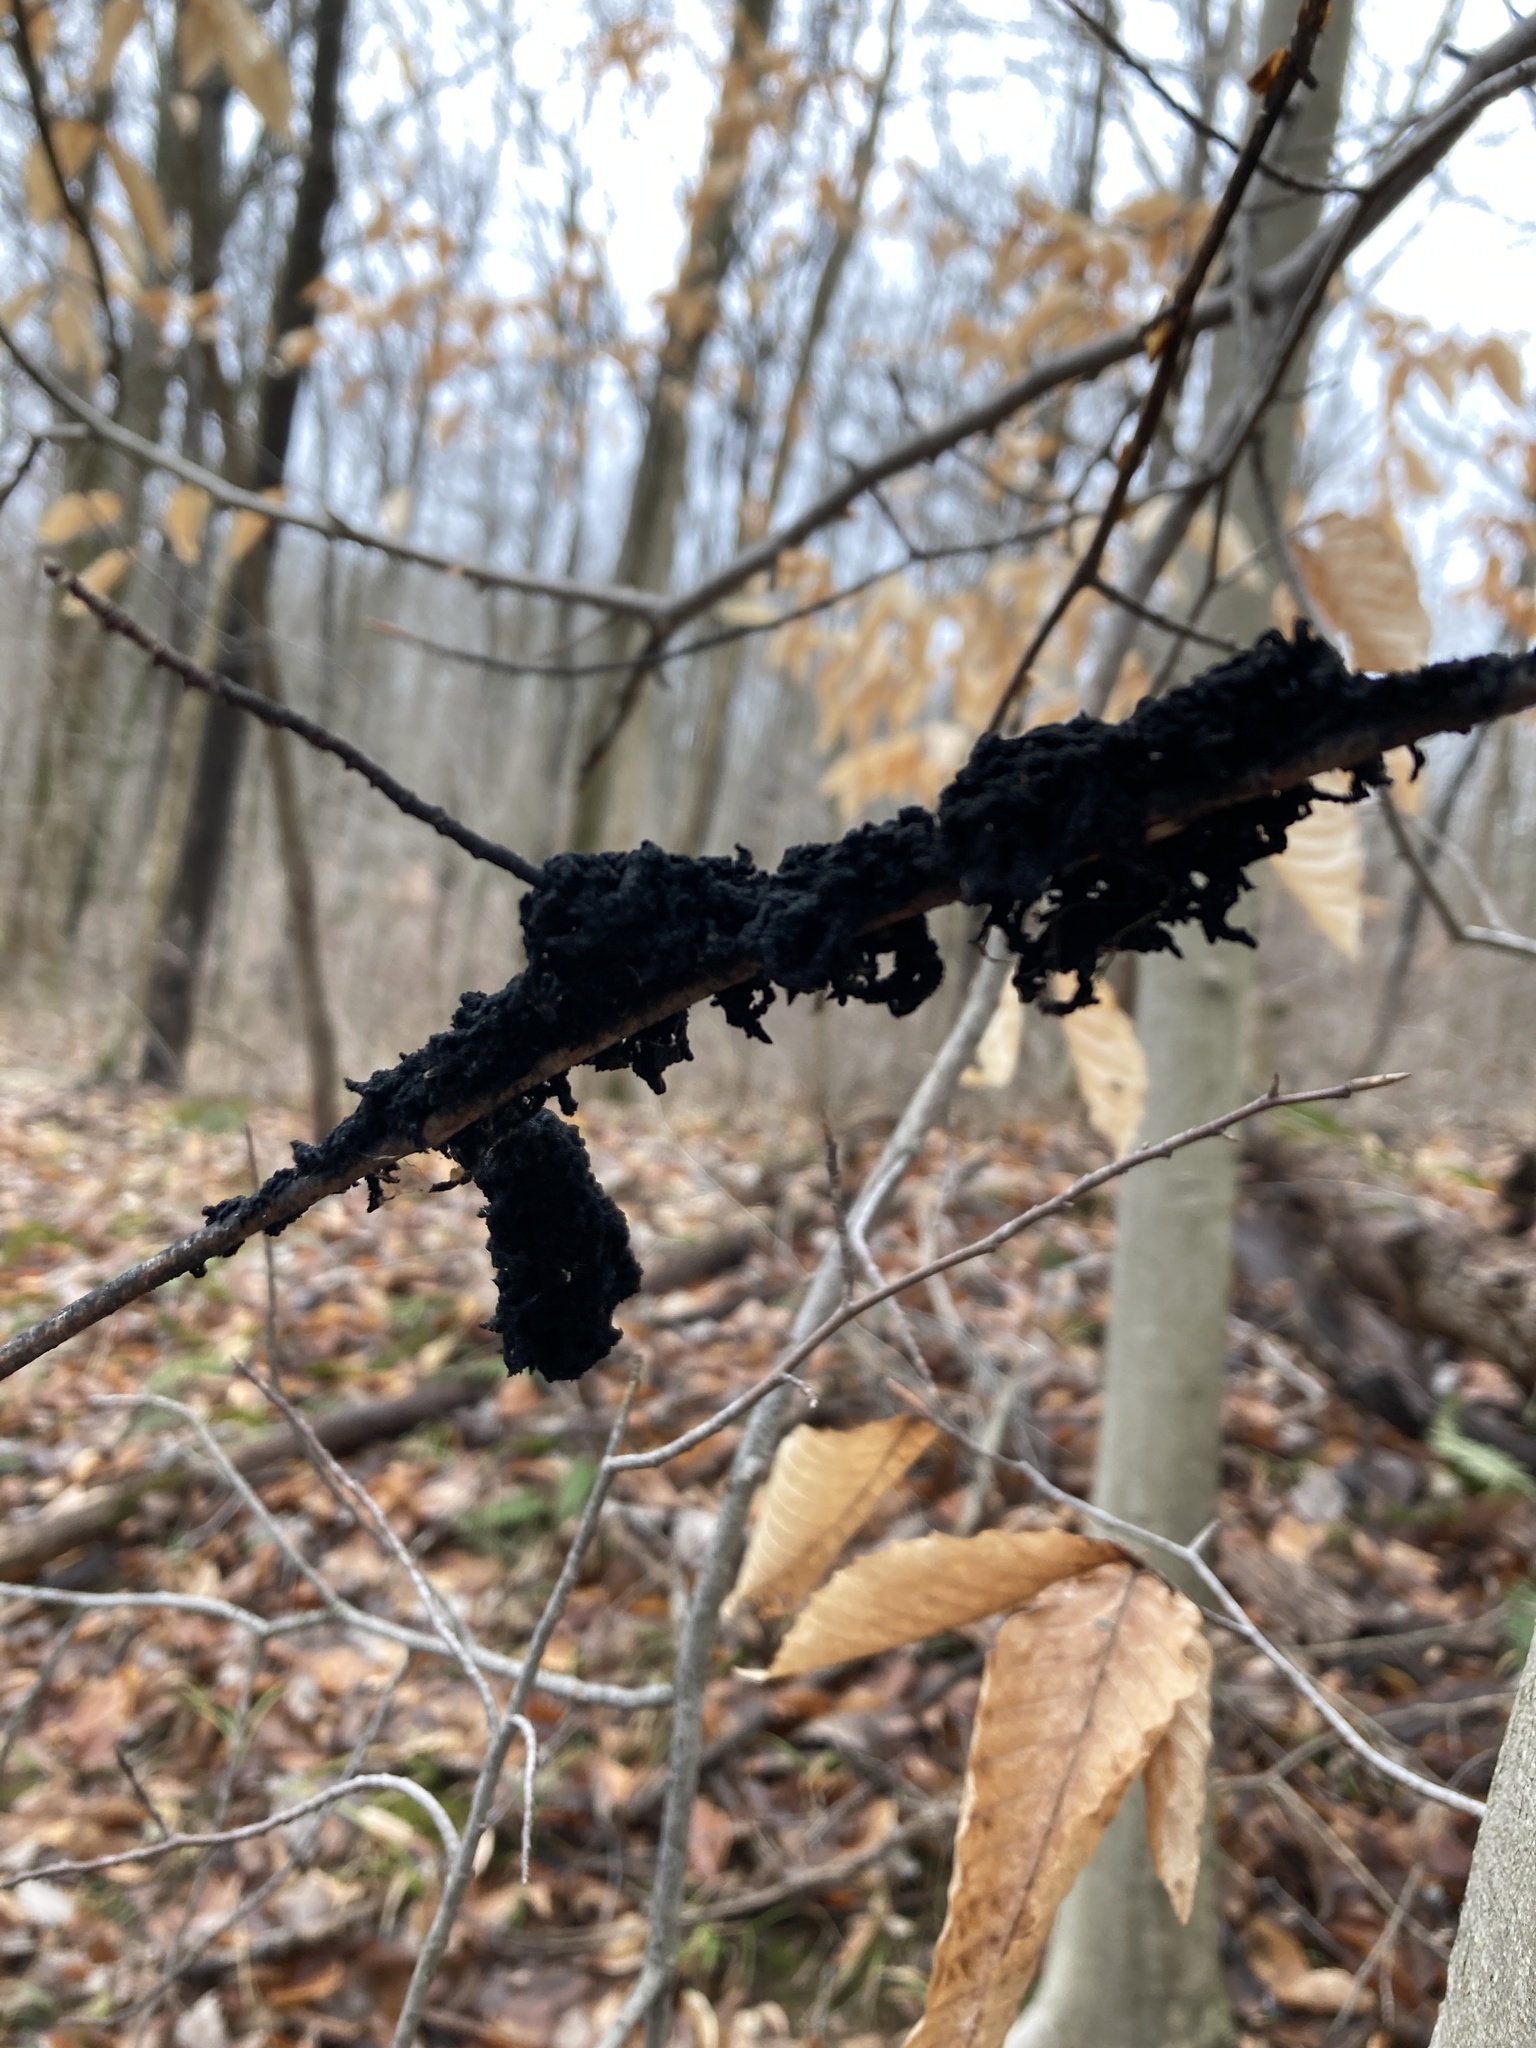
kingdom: Fungi
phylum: Ascomycota
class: Dothideomycetes
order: Capnodiales
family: Capnodiaceae
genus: Scorias
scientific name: Scorias spongiosa
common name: Black sooty mold
